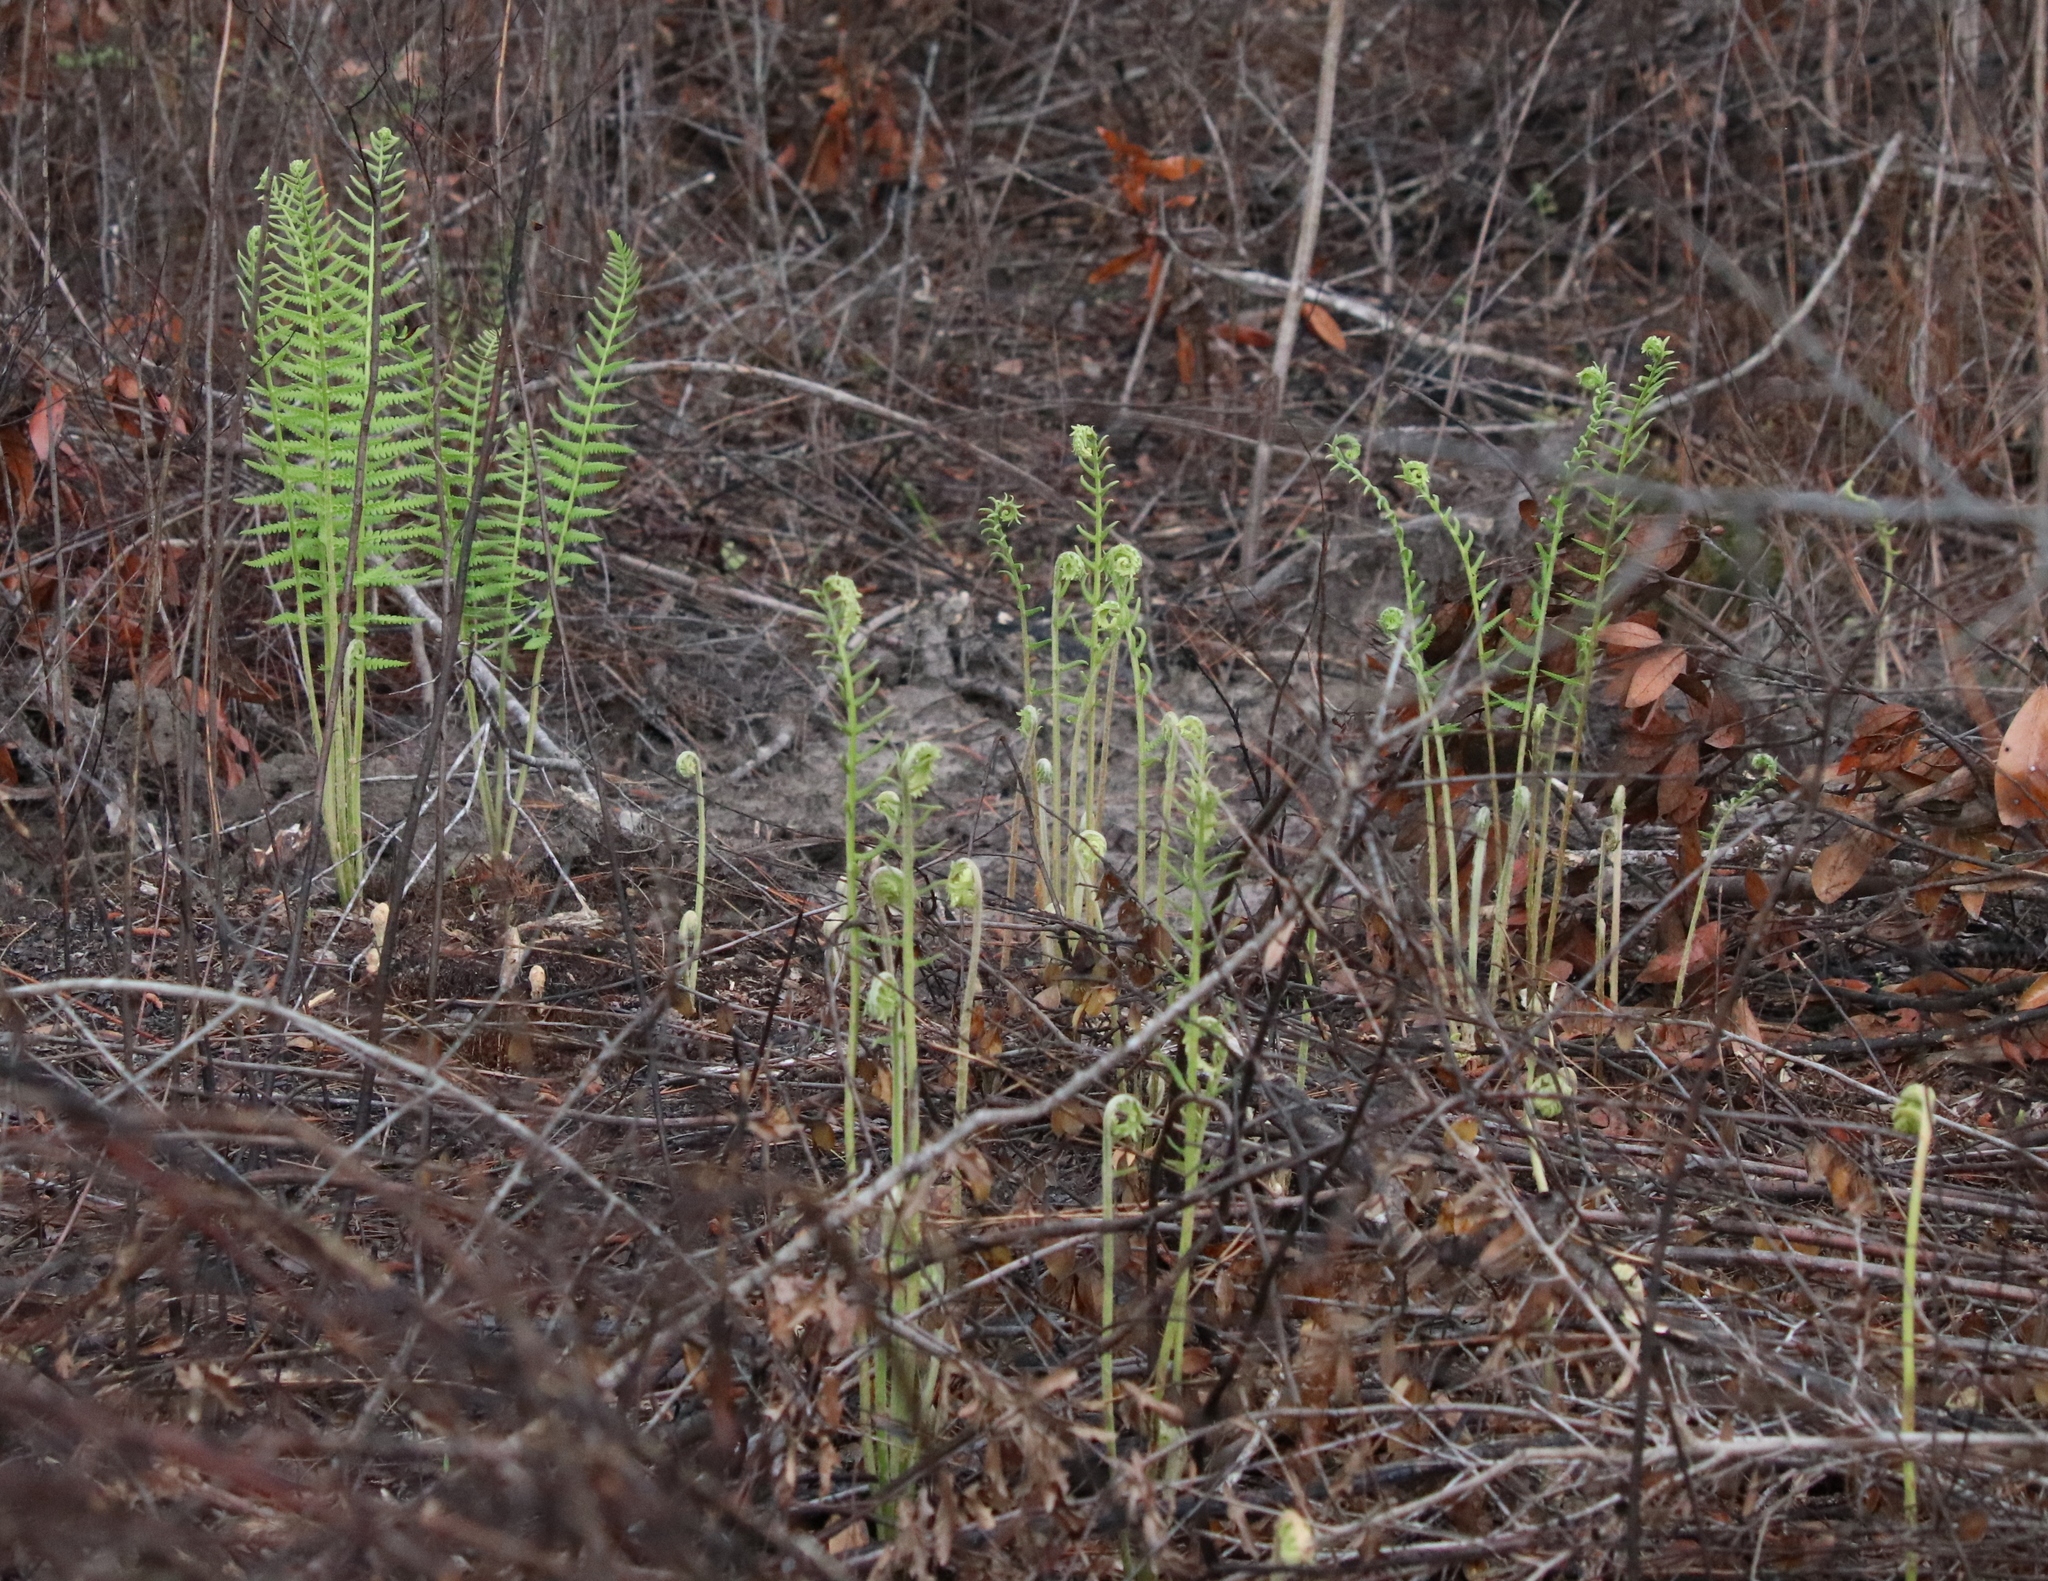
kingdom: Plantae
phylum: Tracheophyta
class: Polypodiopsida
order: Osmundales
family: Osmundaceae
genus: Osmundastrum
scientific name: Osmundastrum cinnamomeum
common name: Cinnamon fern
